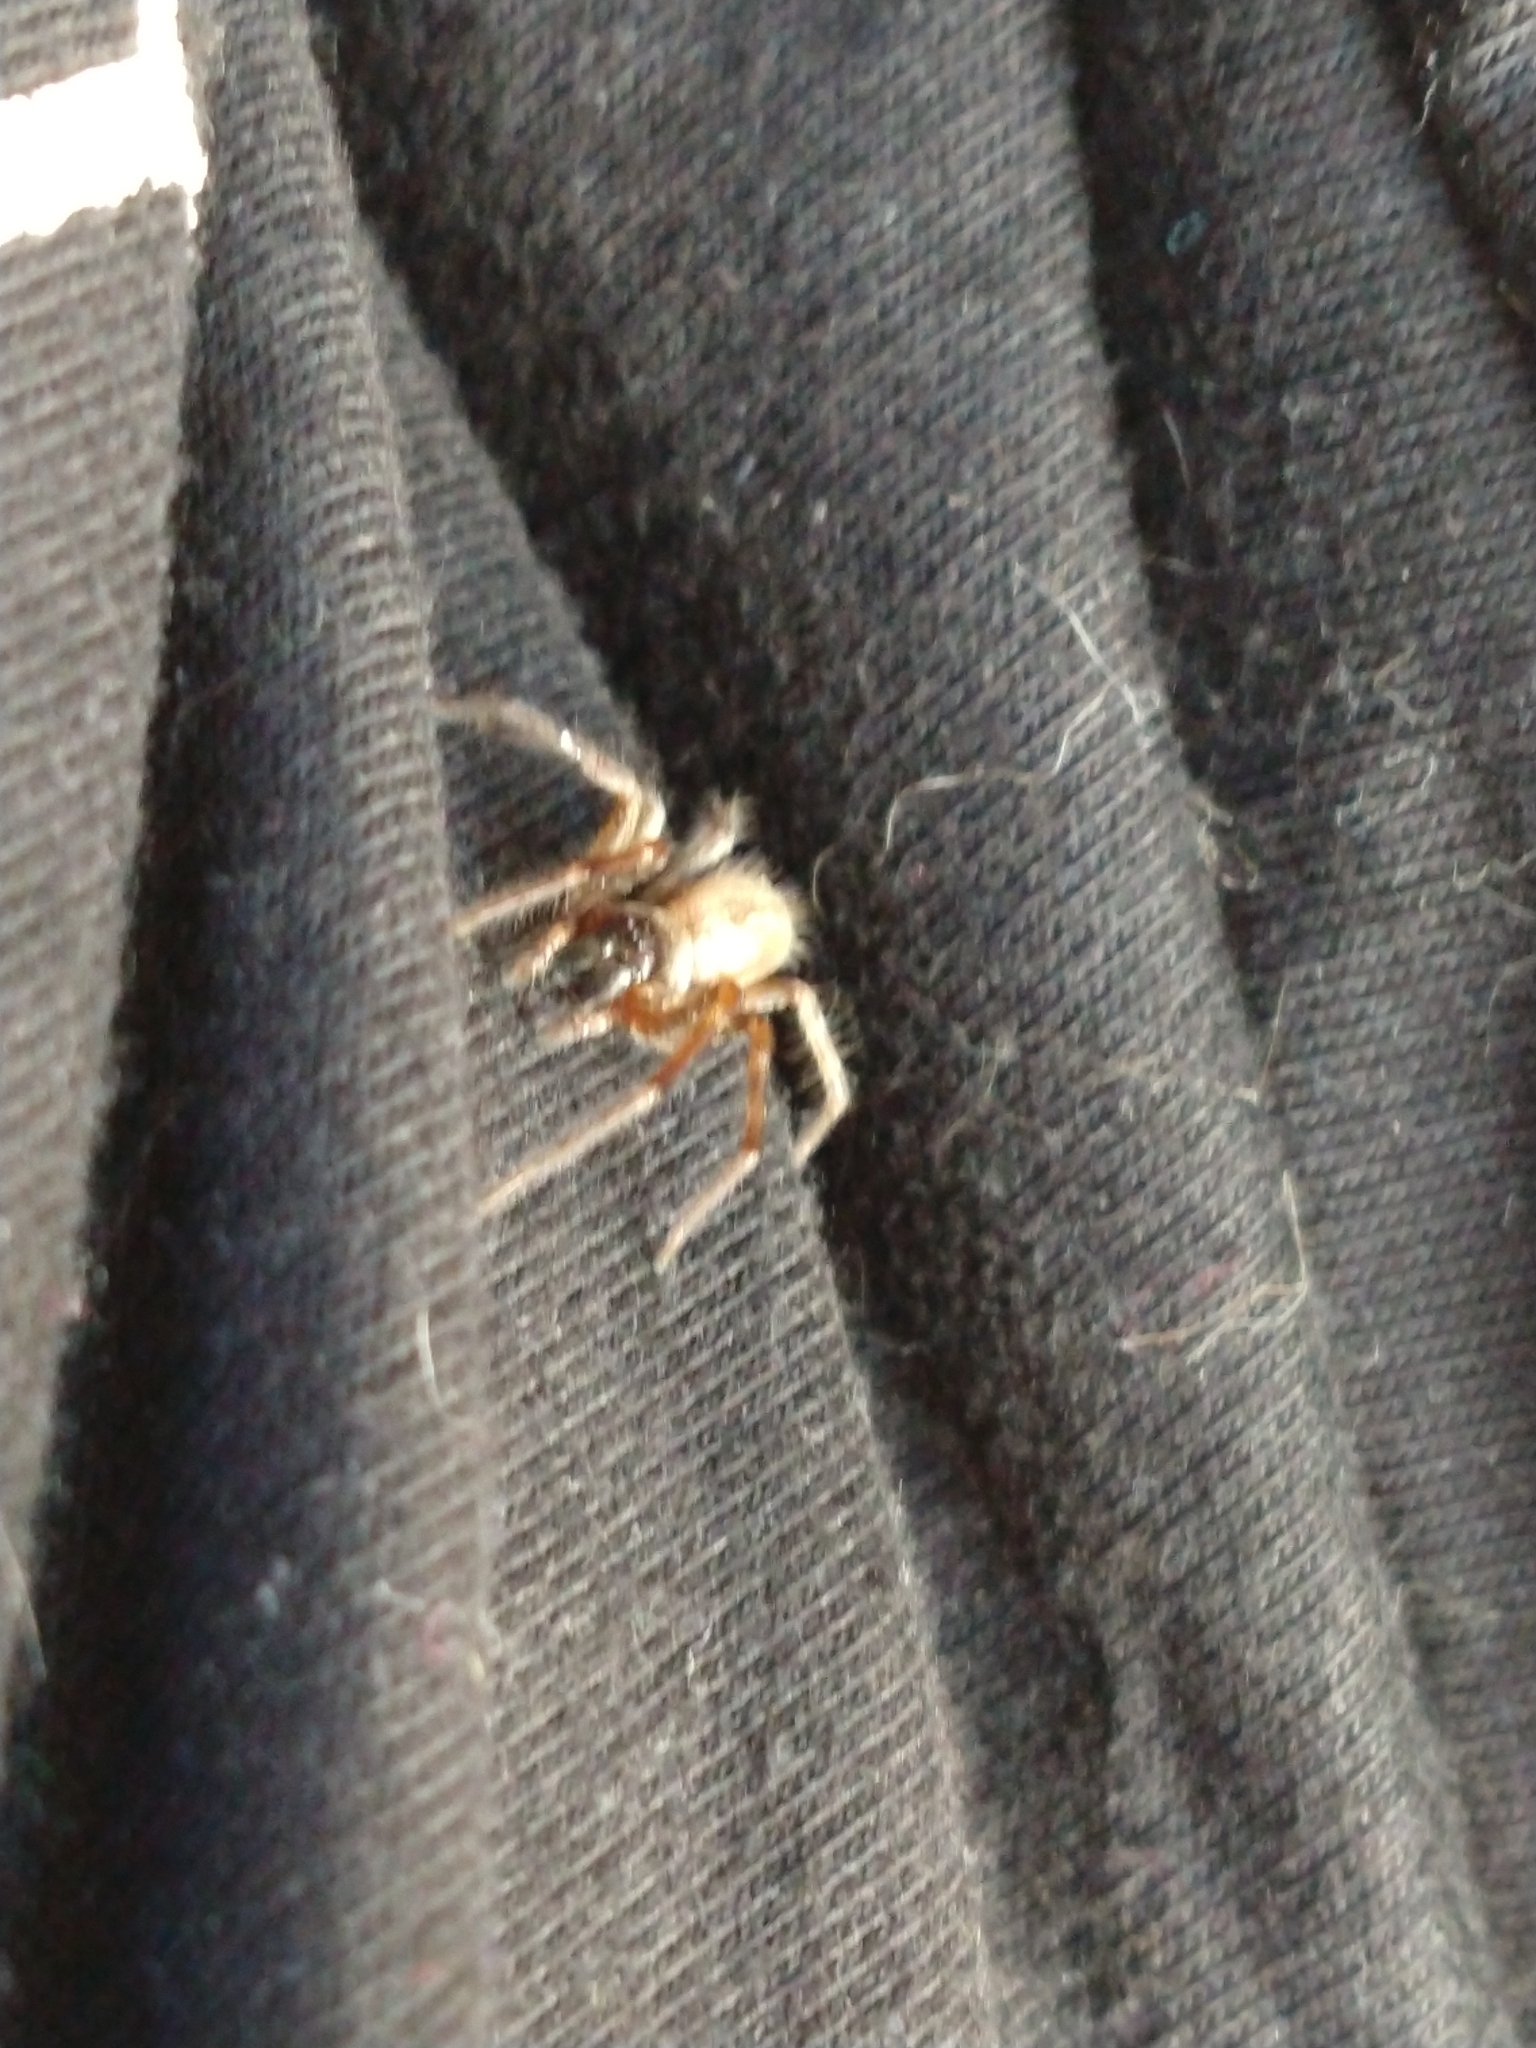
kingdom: Animalia
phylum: Arthropoda
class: Arachnida
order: Araneae
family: Desidae
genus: Badumna
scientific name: Badumna longinqua
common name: Gray house spider
